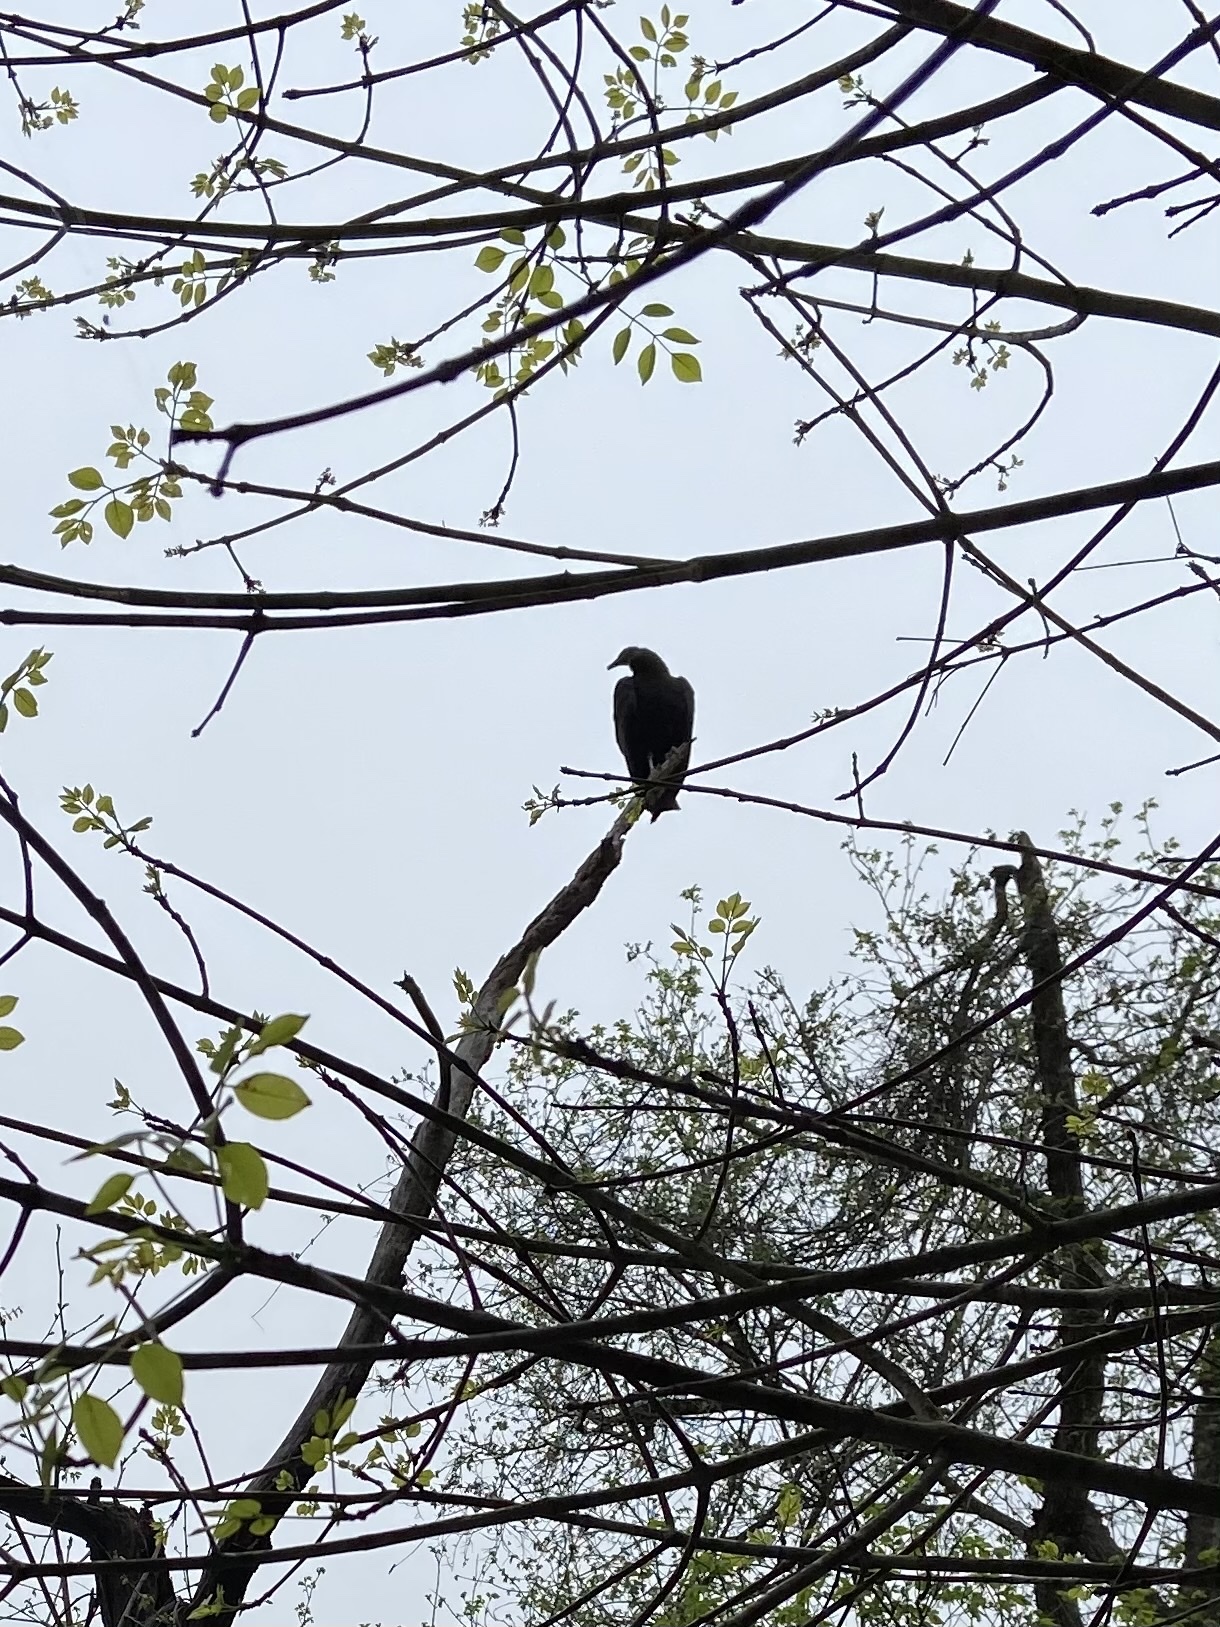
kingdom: Animalia
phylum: Chordata
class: Aves
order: Accipitriformes
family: Cathartidae
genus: Coragyps
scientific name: Coragyps atratus
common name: Black vulture
